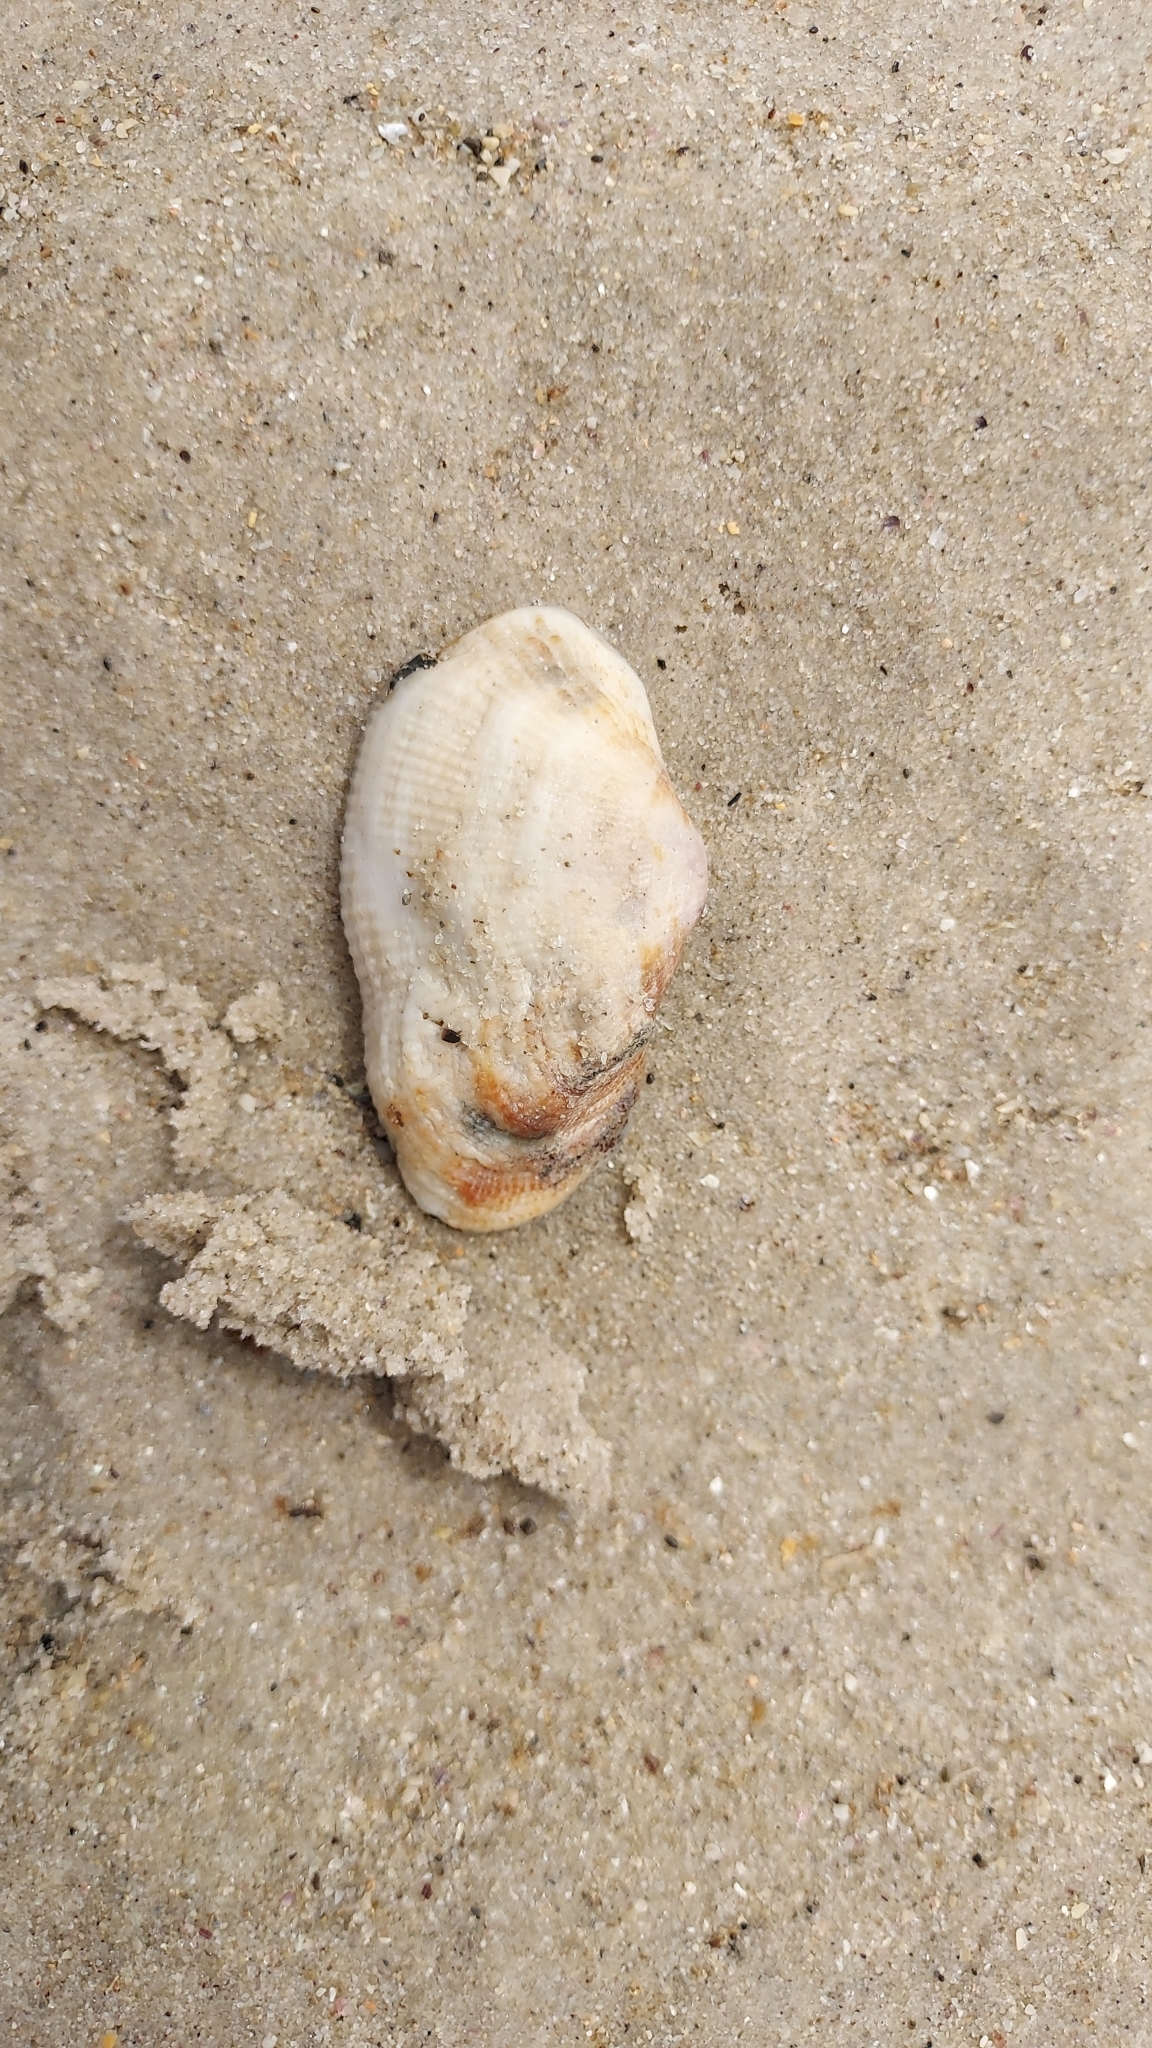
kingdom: Animalia
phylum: Mollusca
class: Bivalvia
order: Arcida
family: Arcidae
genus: Barbatia
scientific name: Barbatia pistachia
